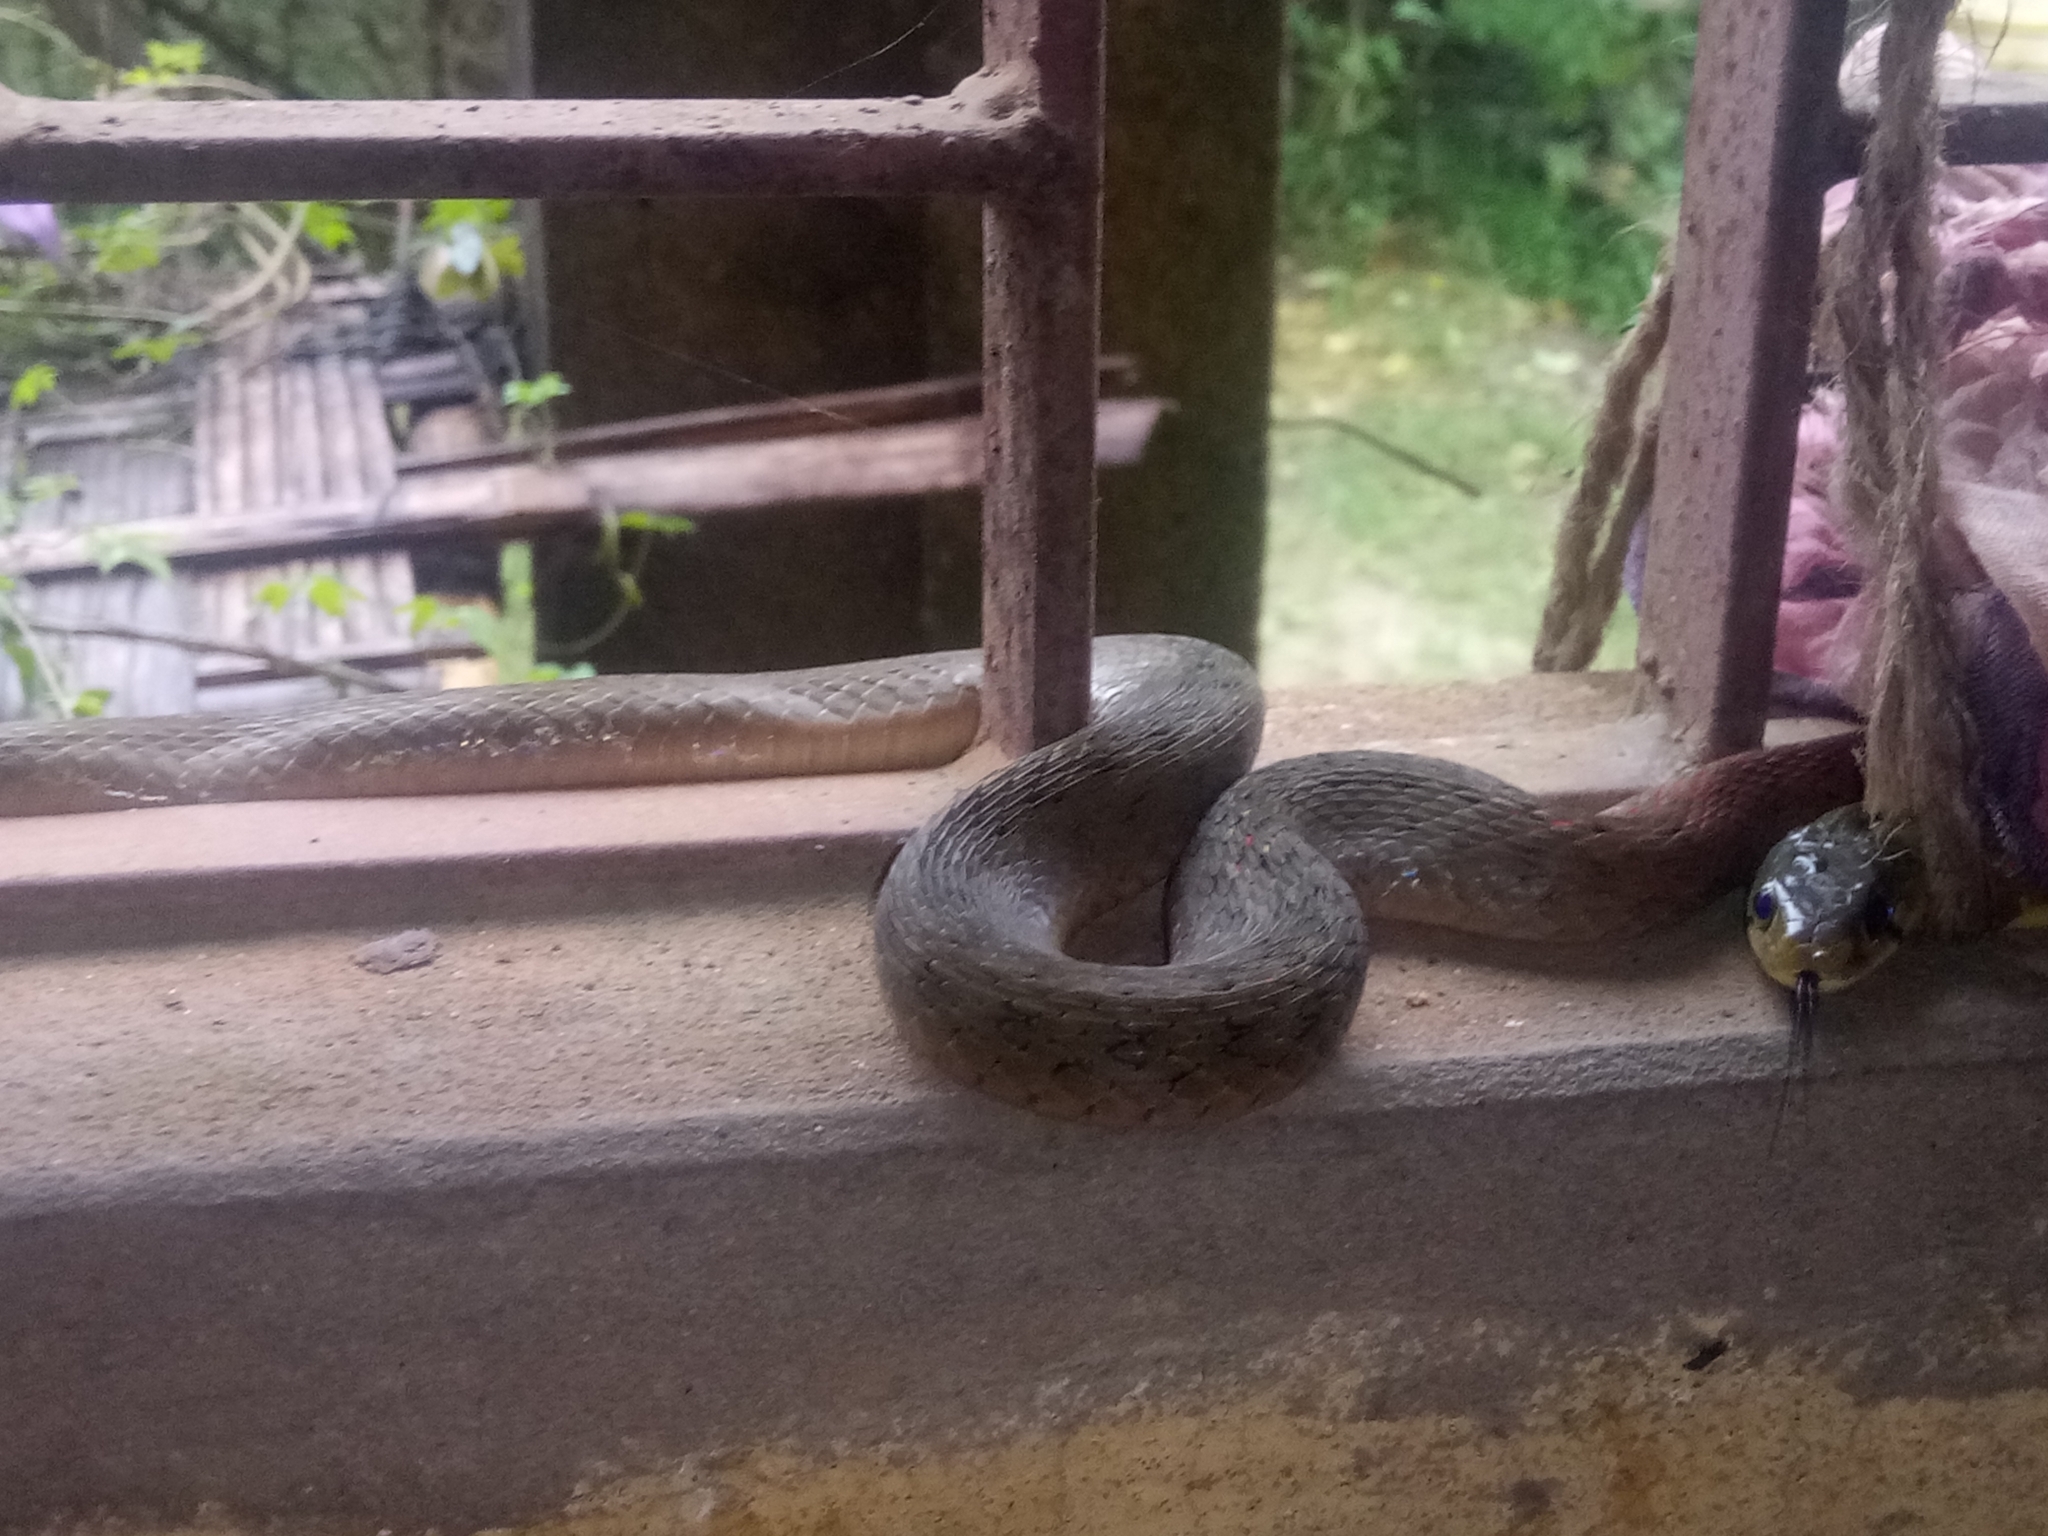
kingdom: Animalia
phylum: Chordata
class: Squamata
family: Colubridae
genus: Rhabdophis
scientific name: Rhabdophis helleri
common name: Heller’s red-necked keelback
